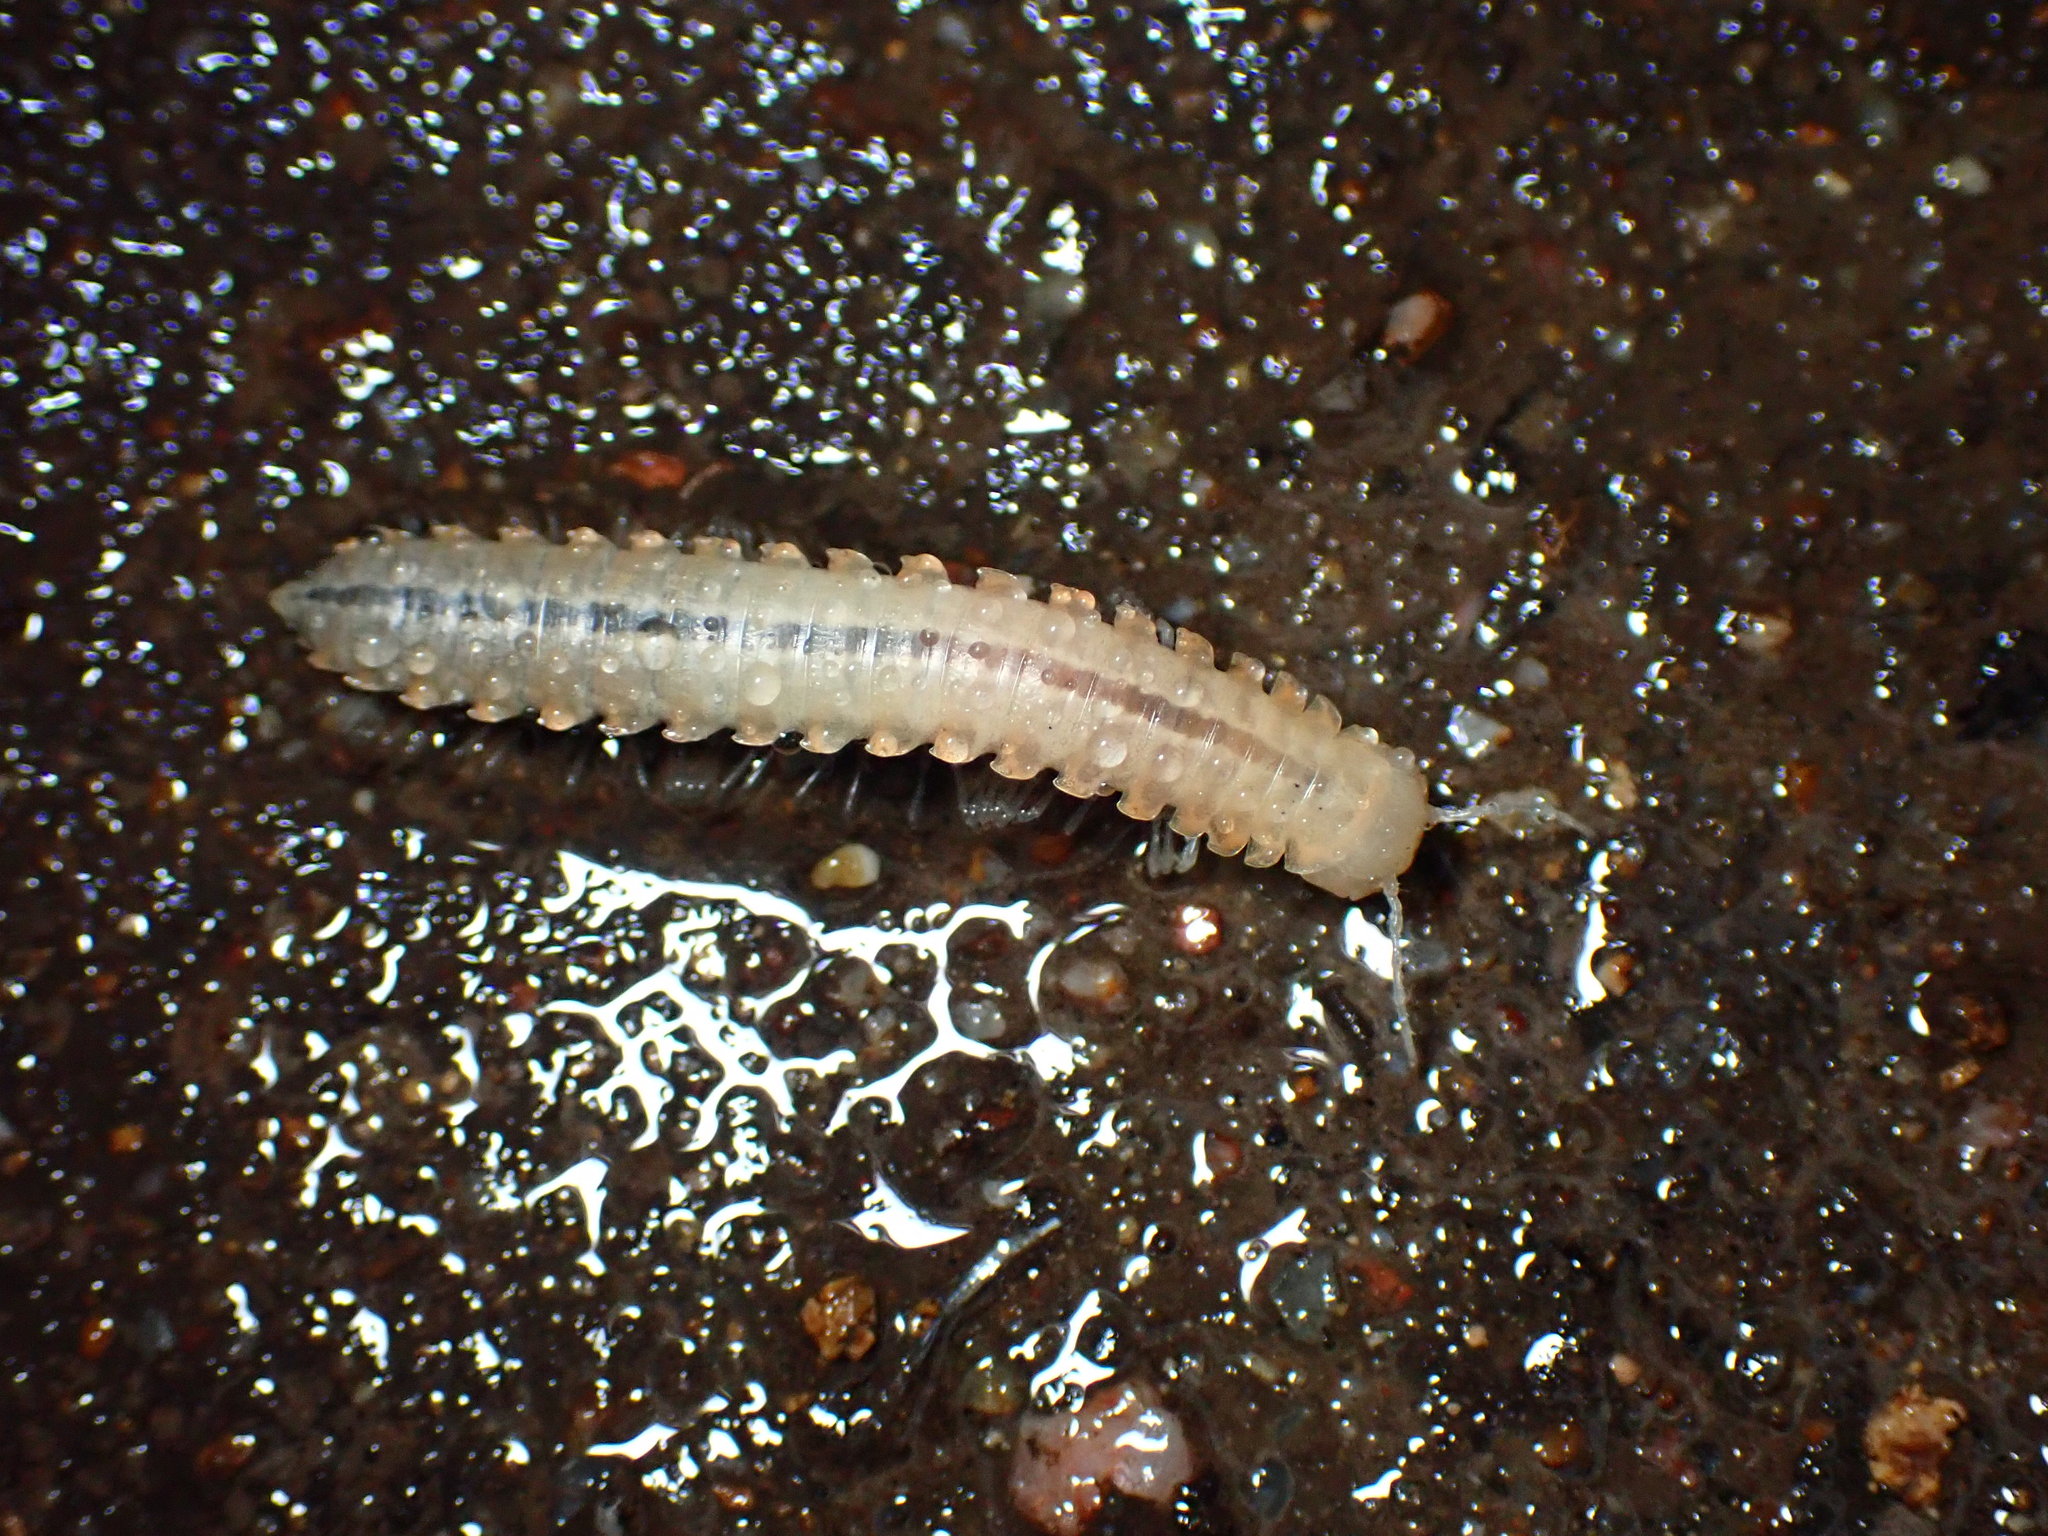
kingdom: Animalia
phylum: Arthropoda
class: Diplopoda
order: Polydesmida
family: Xystodesmidae
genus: Xystocheir
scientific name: Xystocheir dissecta
